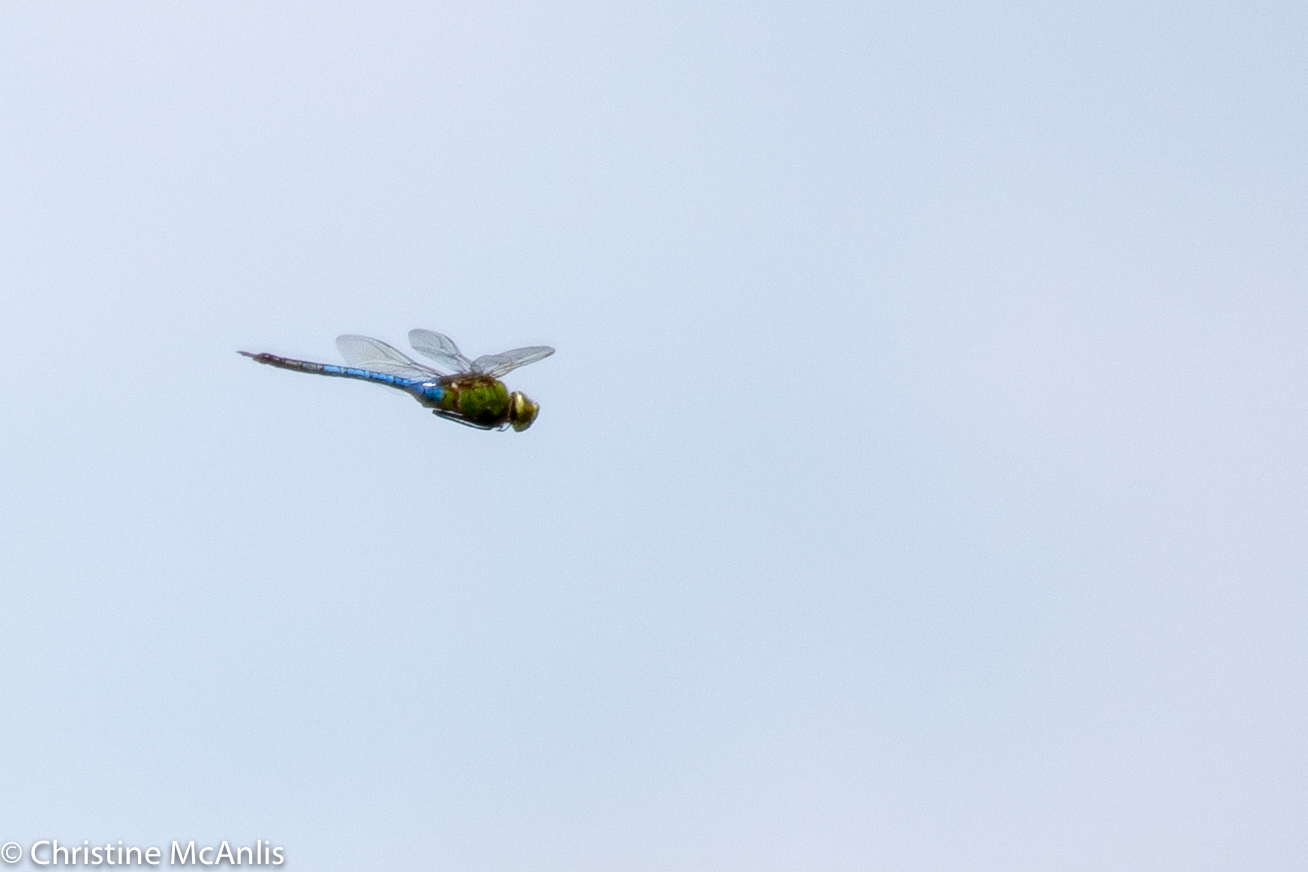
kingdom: Animalia
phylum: Arthropoda
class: Insecta
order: Odonata
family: Aeshnidae
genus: Anax
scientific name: Anax junius
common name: Common green darner
